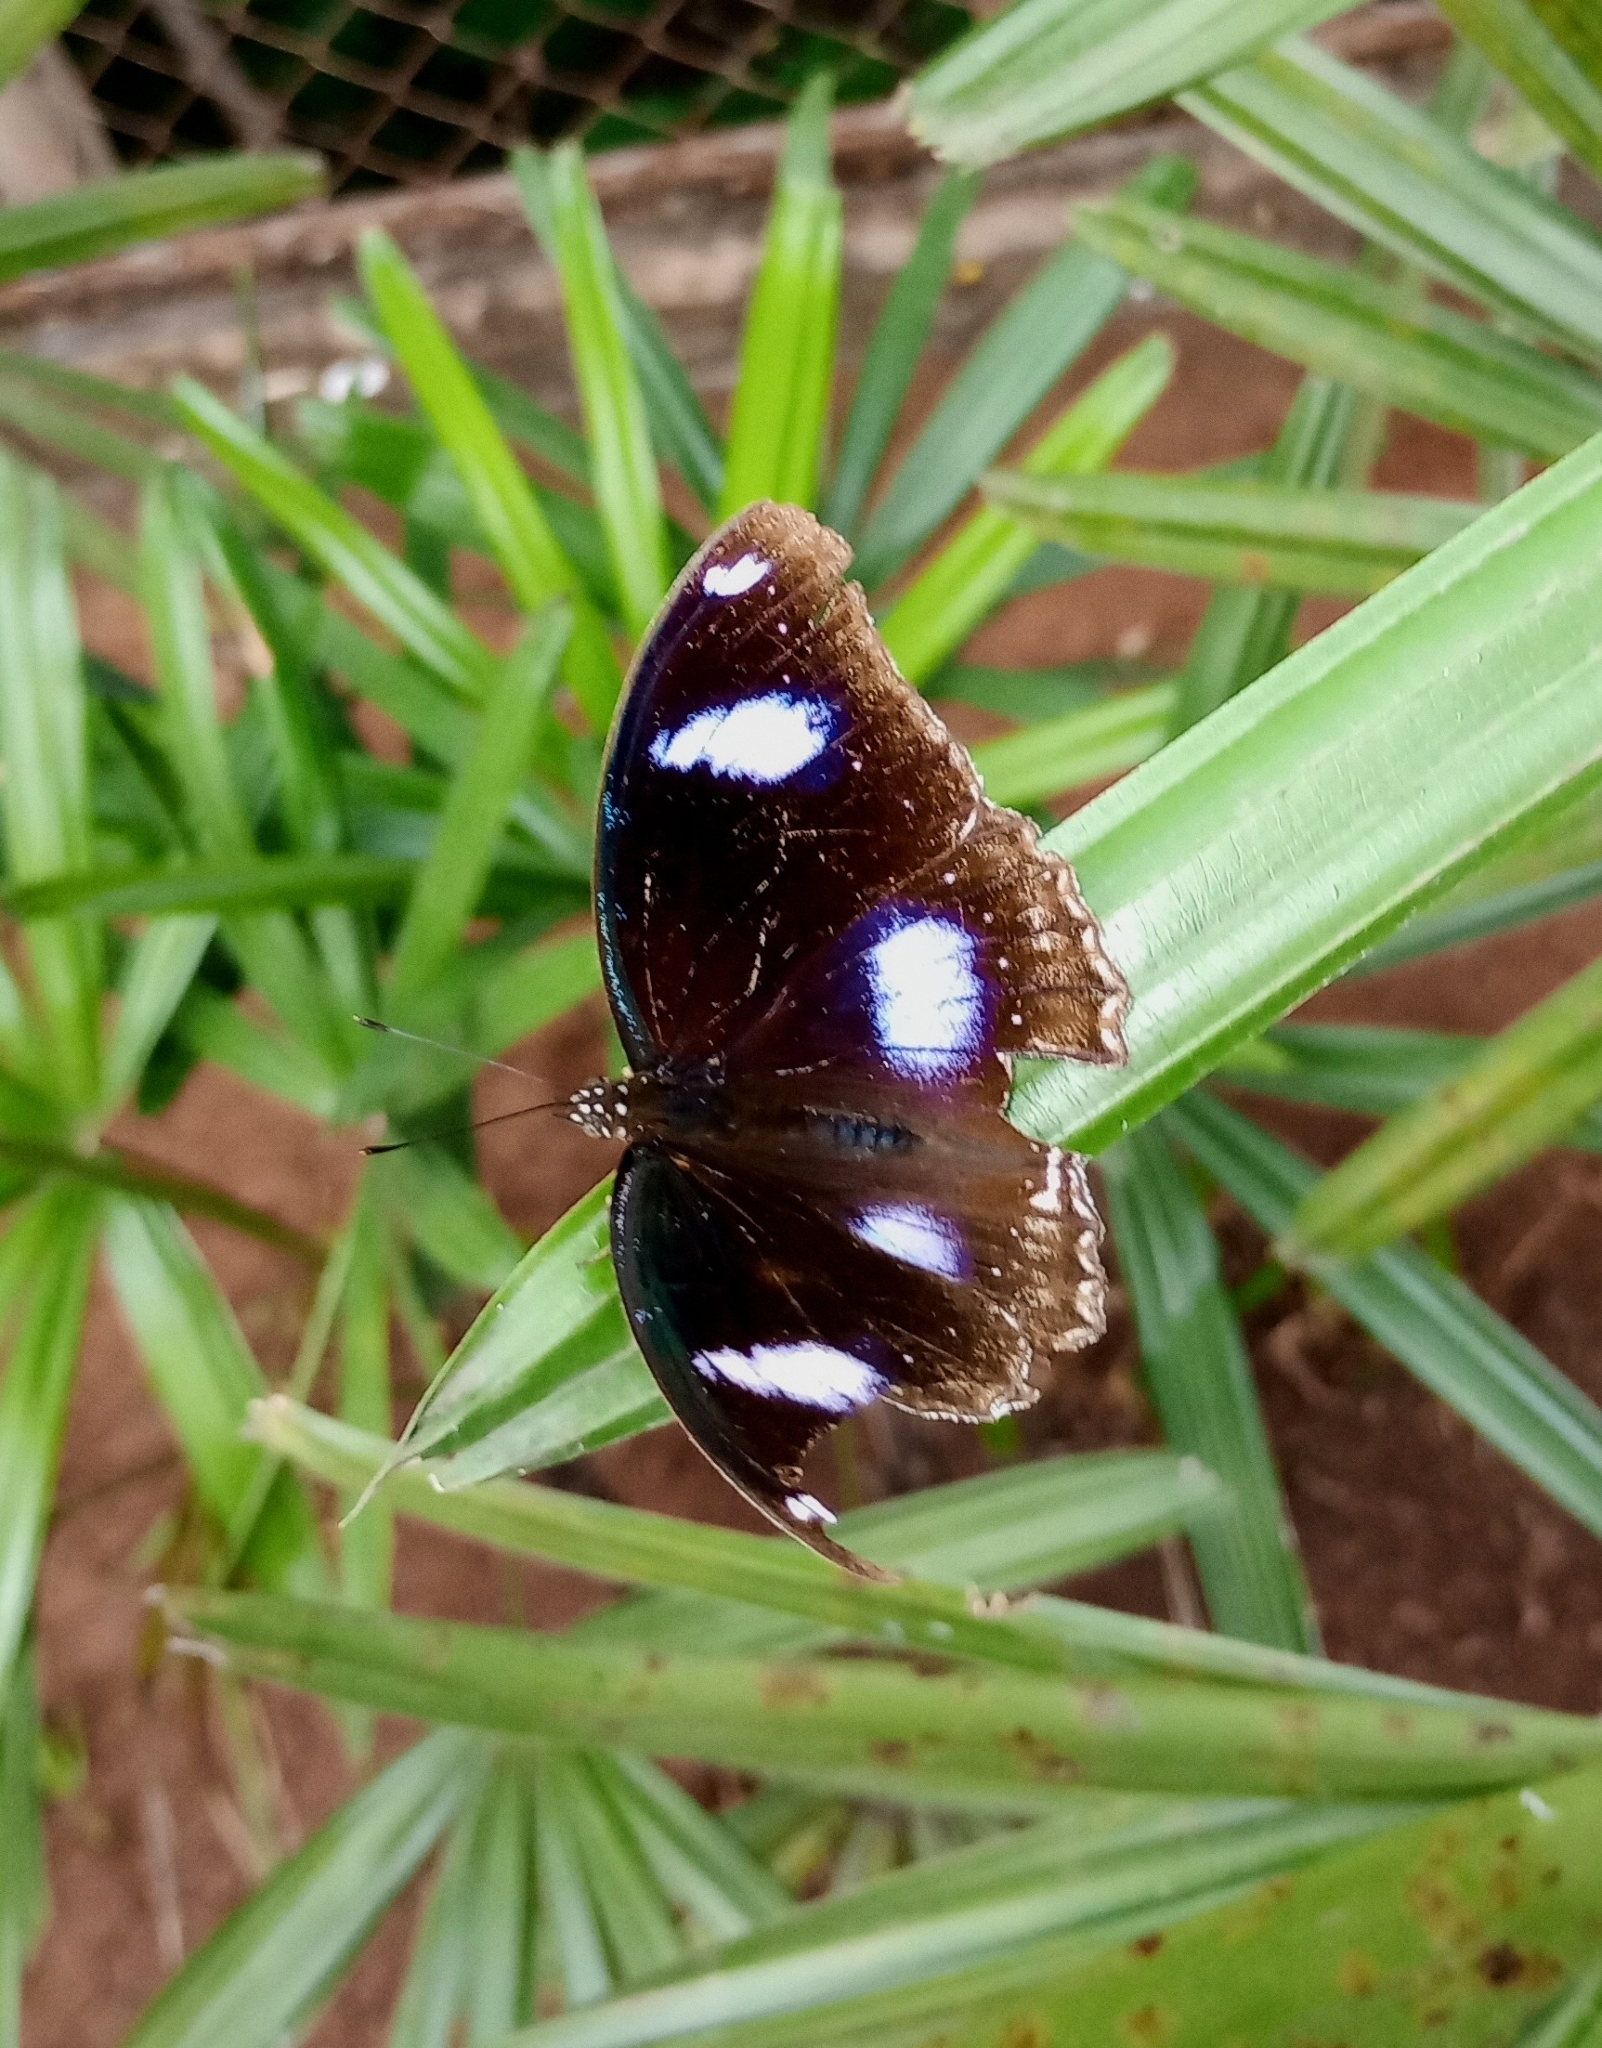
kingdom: Animalia
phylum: Arthropoda
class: Insecta
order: Lepidoptera
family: Nymphalidae
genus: Hypolimnas
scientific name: Hypolimnas bolina
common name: Great eggfly
